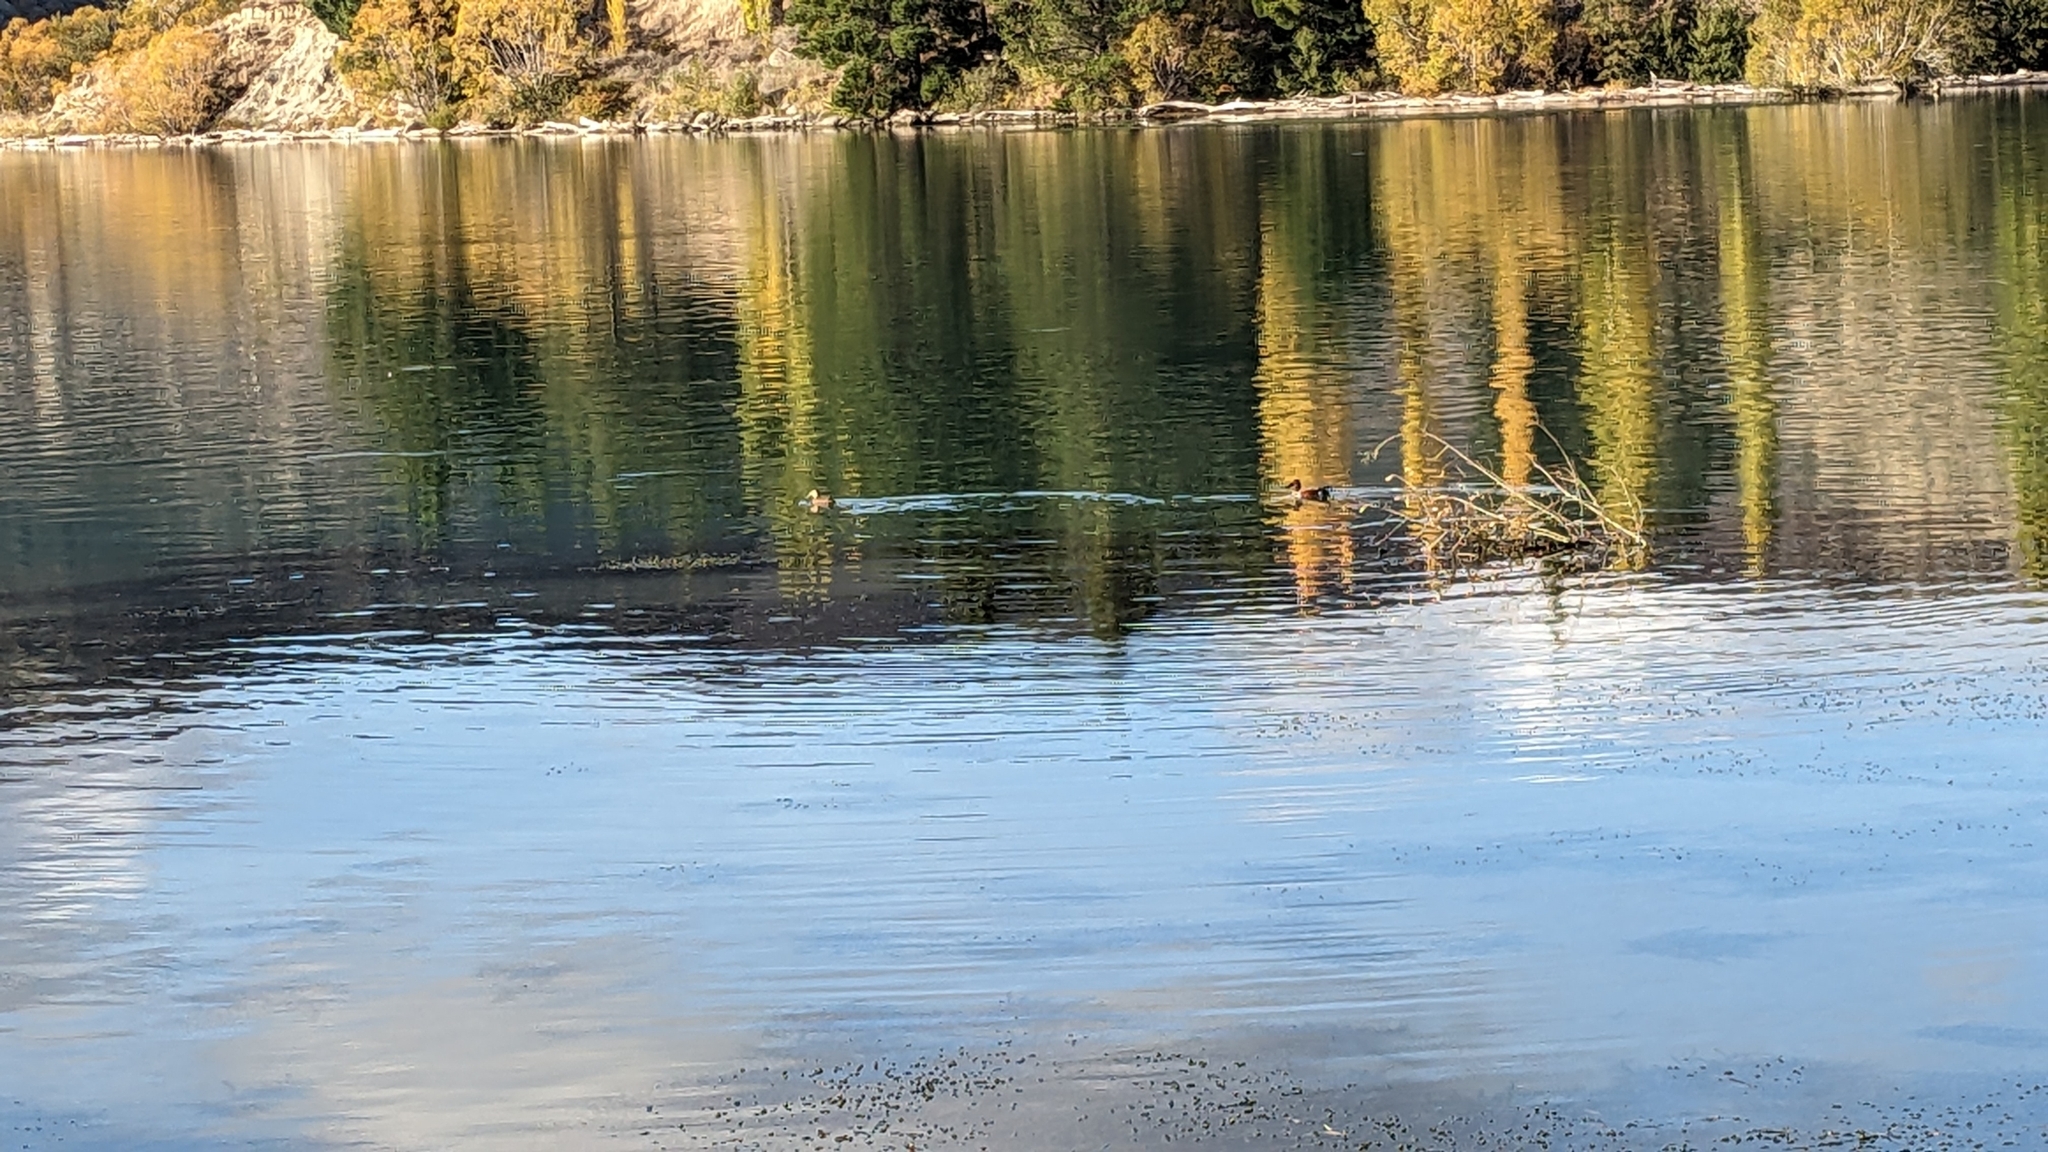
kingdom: Animalia
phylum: Chordata
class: Aves
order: Anseriformes
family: Anatidae
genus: Spatula
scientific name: Spatula rhynchotis
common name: Australian shoveler
